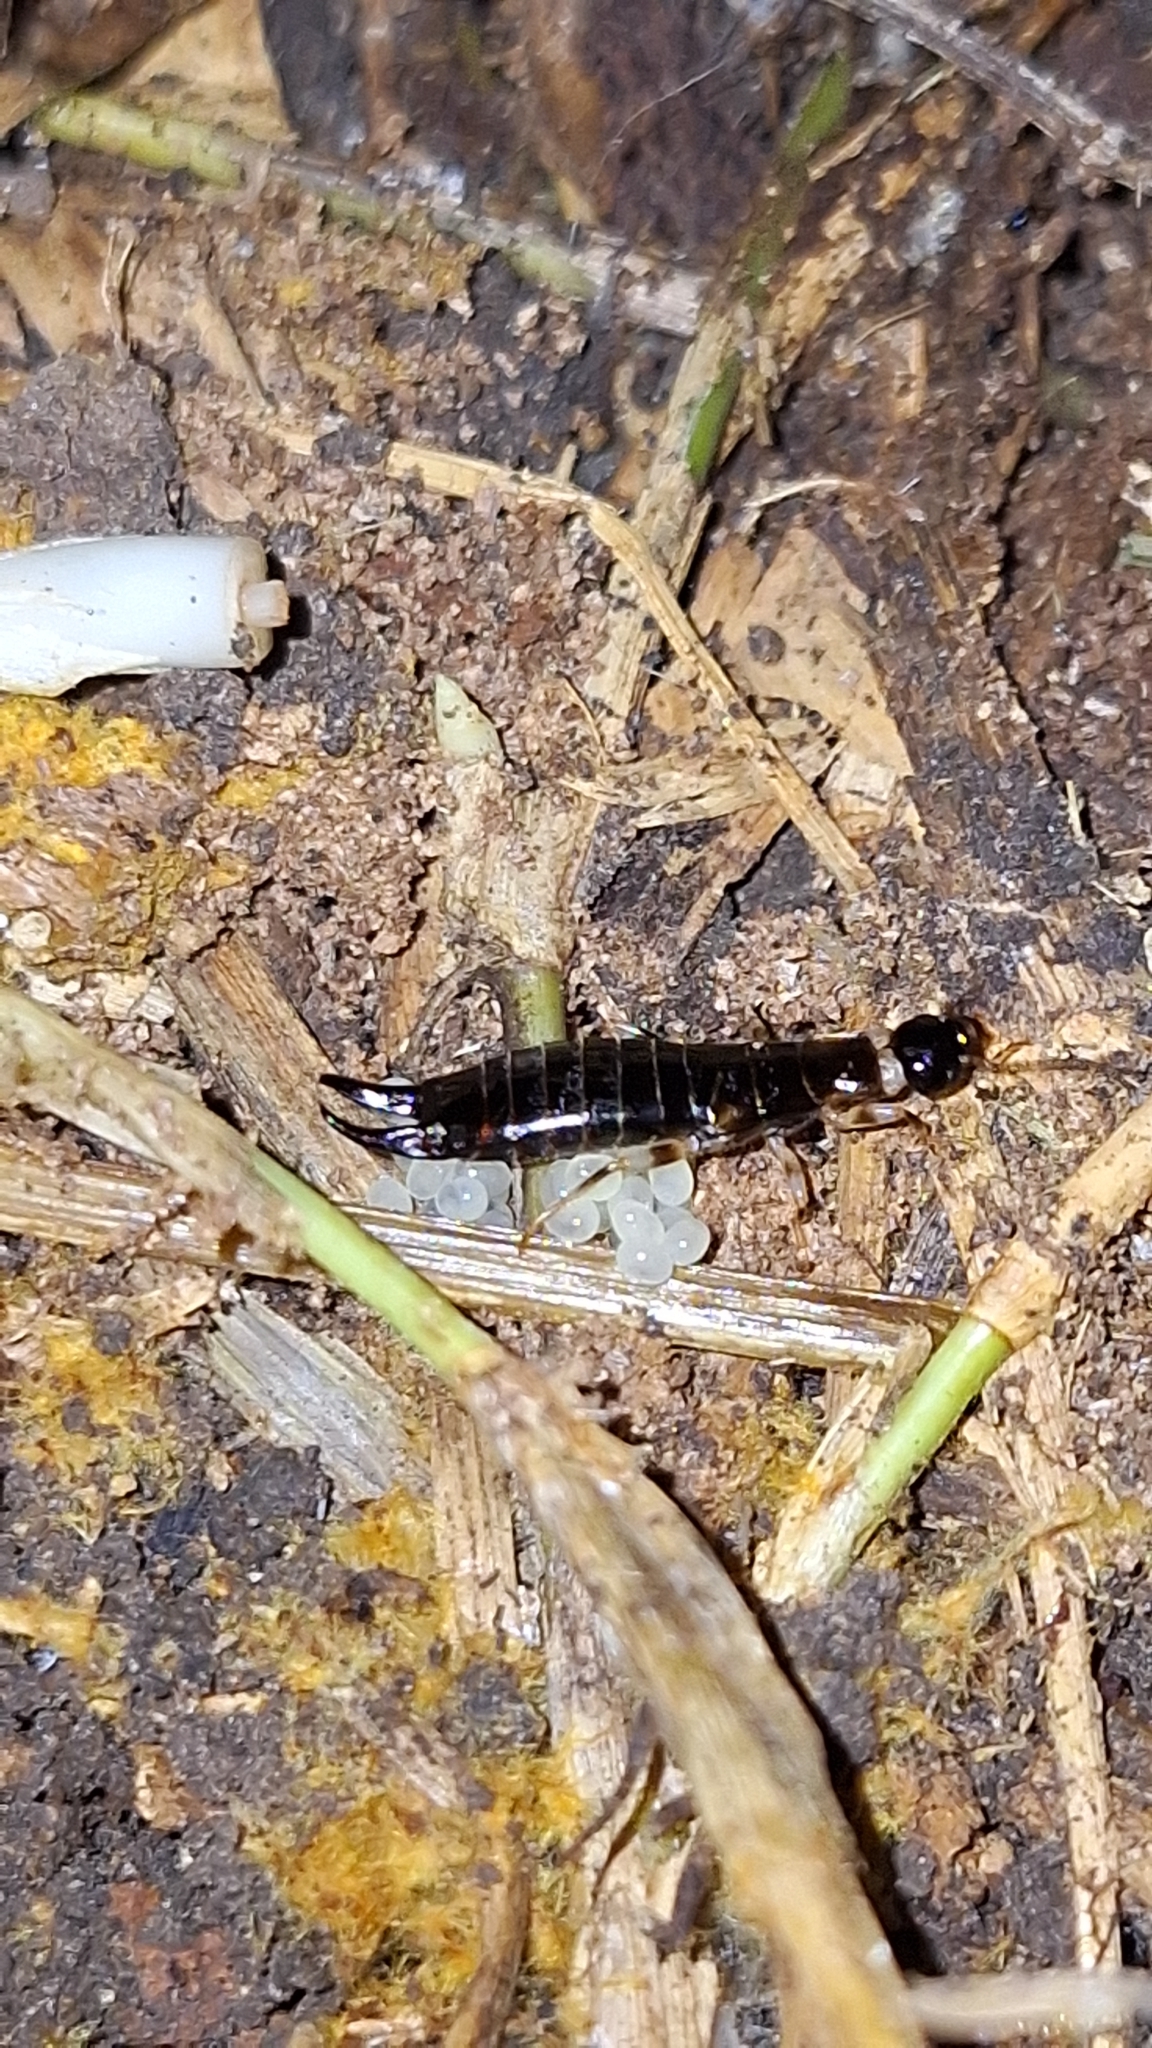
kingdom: Animalia
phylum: Arthropoda
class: Insecta
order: Dermaptera
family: Anisolabididae
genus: Euborellia
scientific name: Euborellia annulipes
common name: Ringlegged earwig
